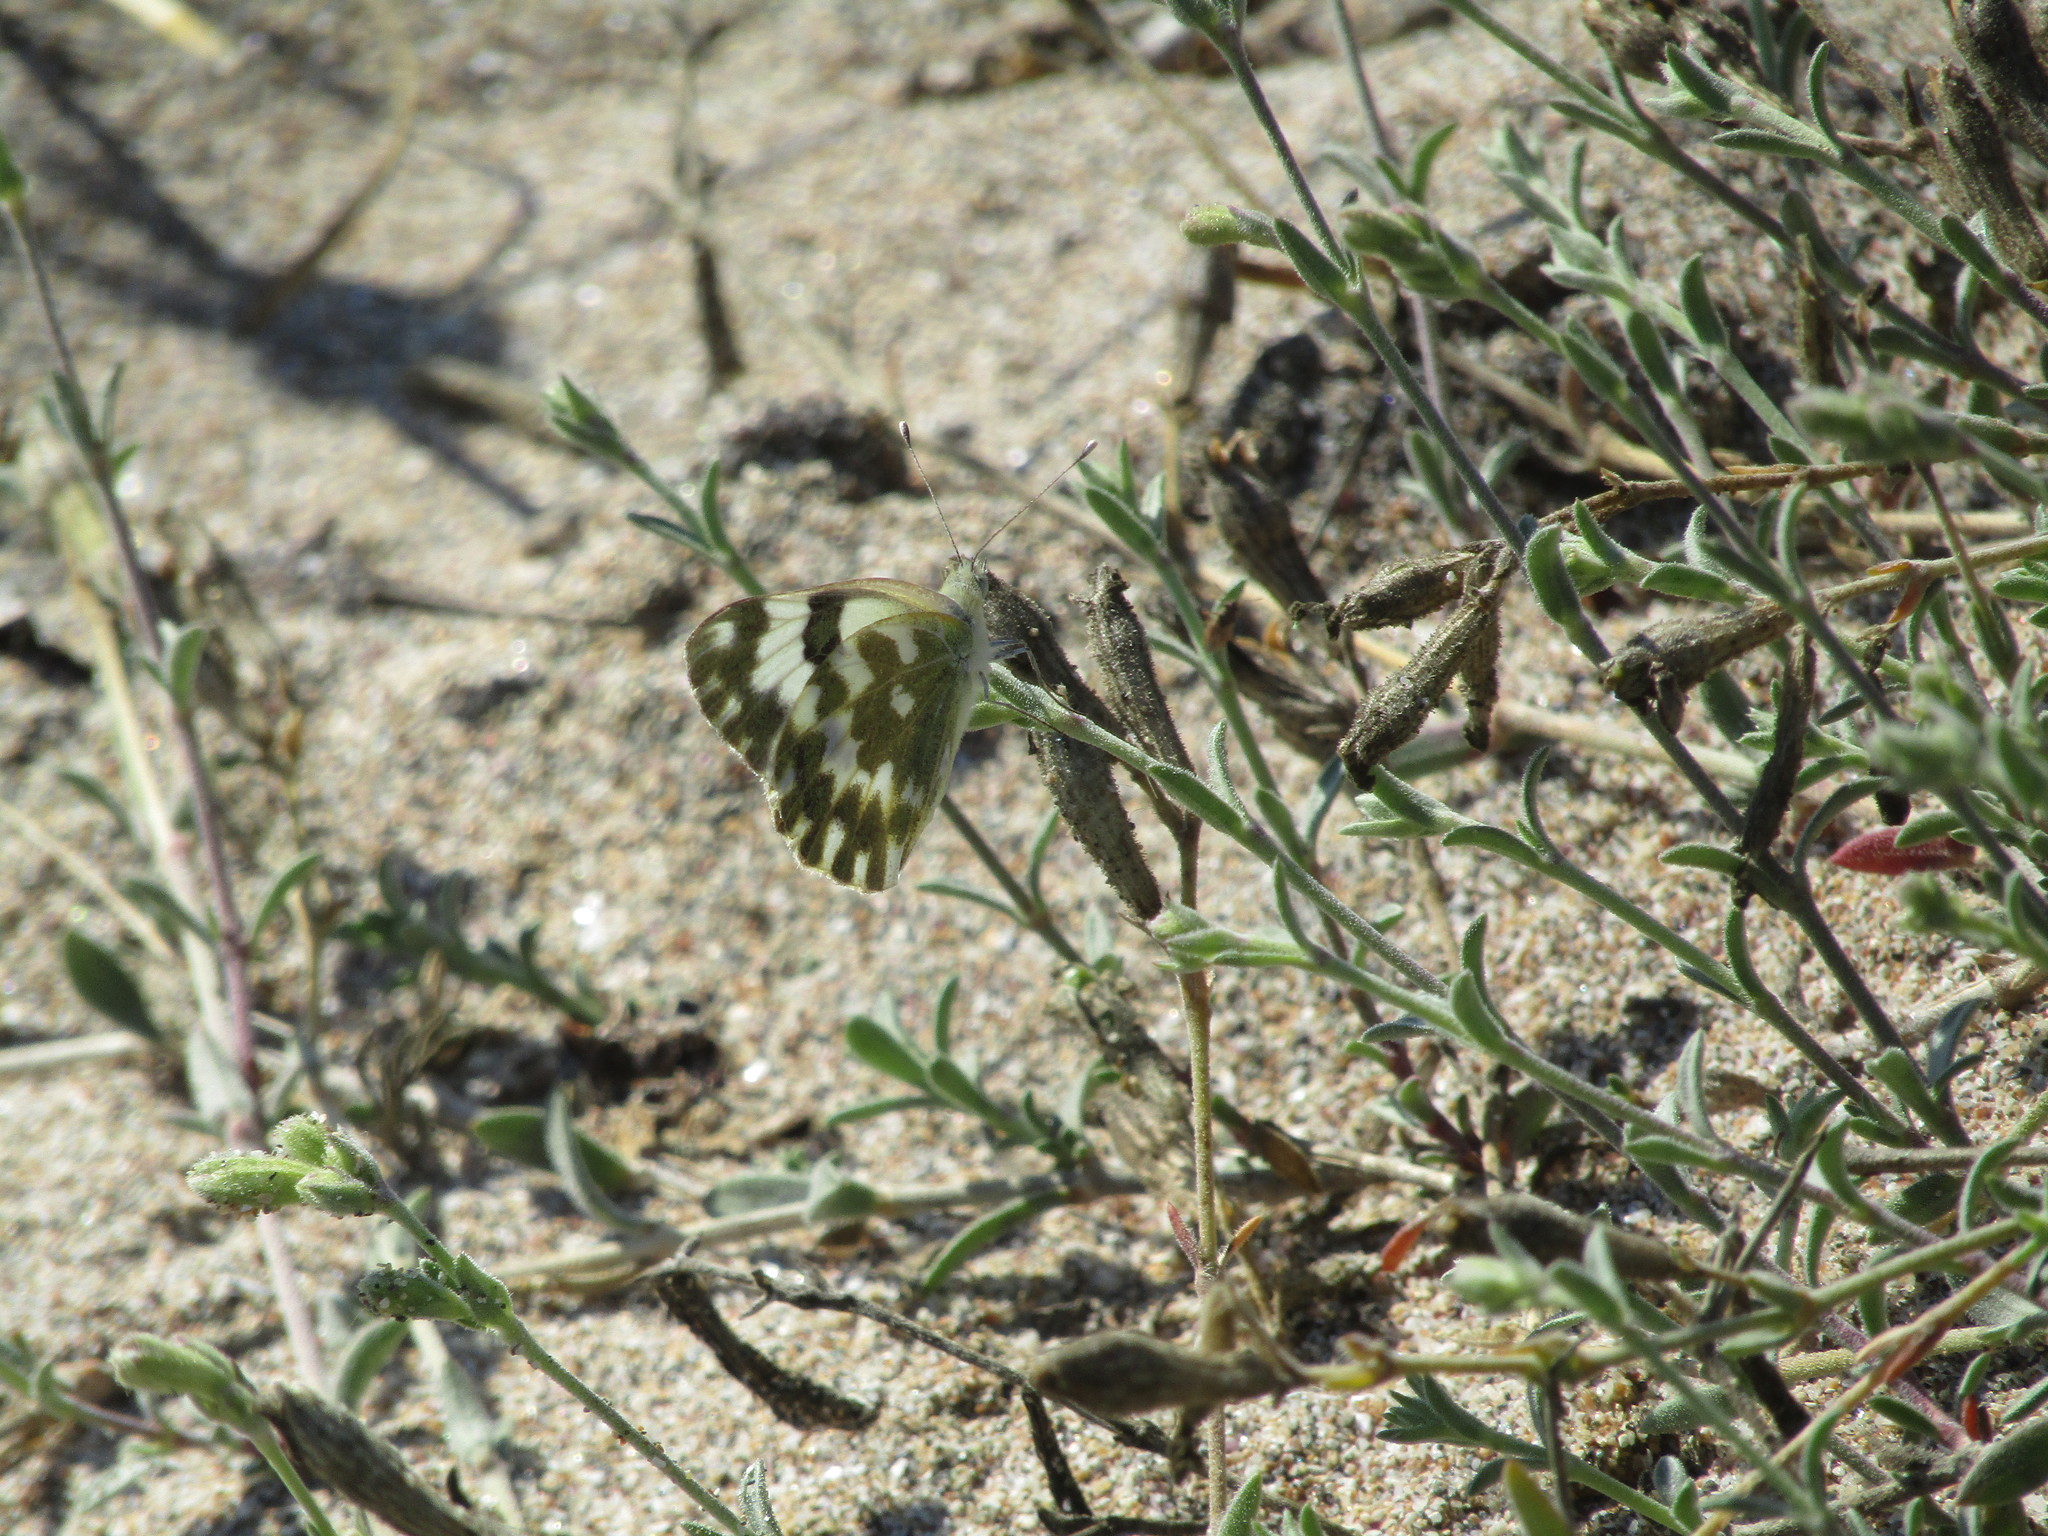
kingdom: Animalia
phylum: Arthropoda
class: Insecta
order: Lepidoptera
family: Pieridae
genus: Pontia
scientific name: Pontia edusa
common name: Eastern bath white
